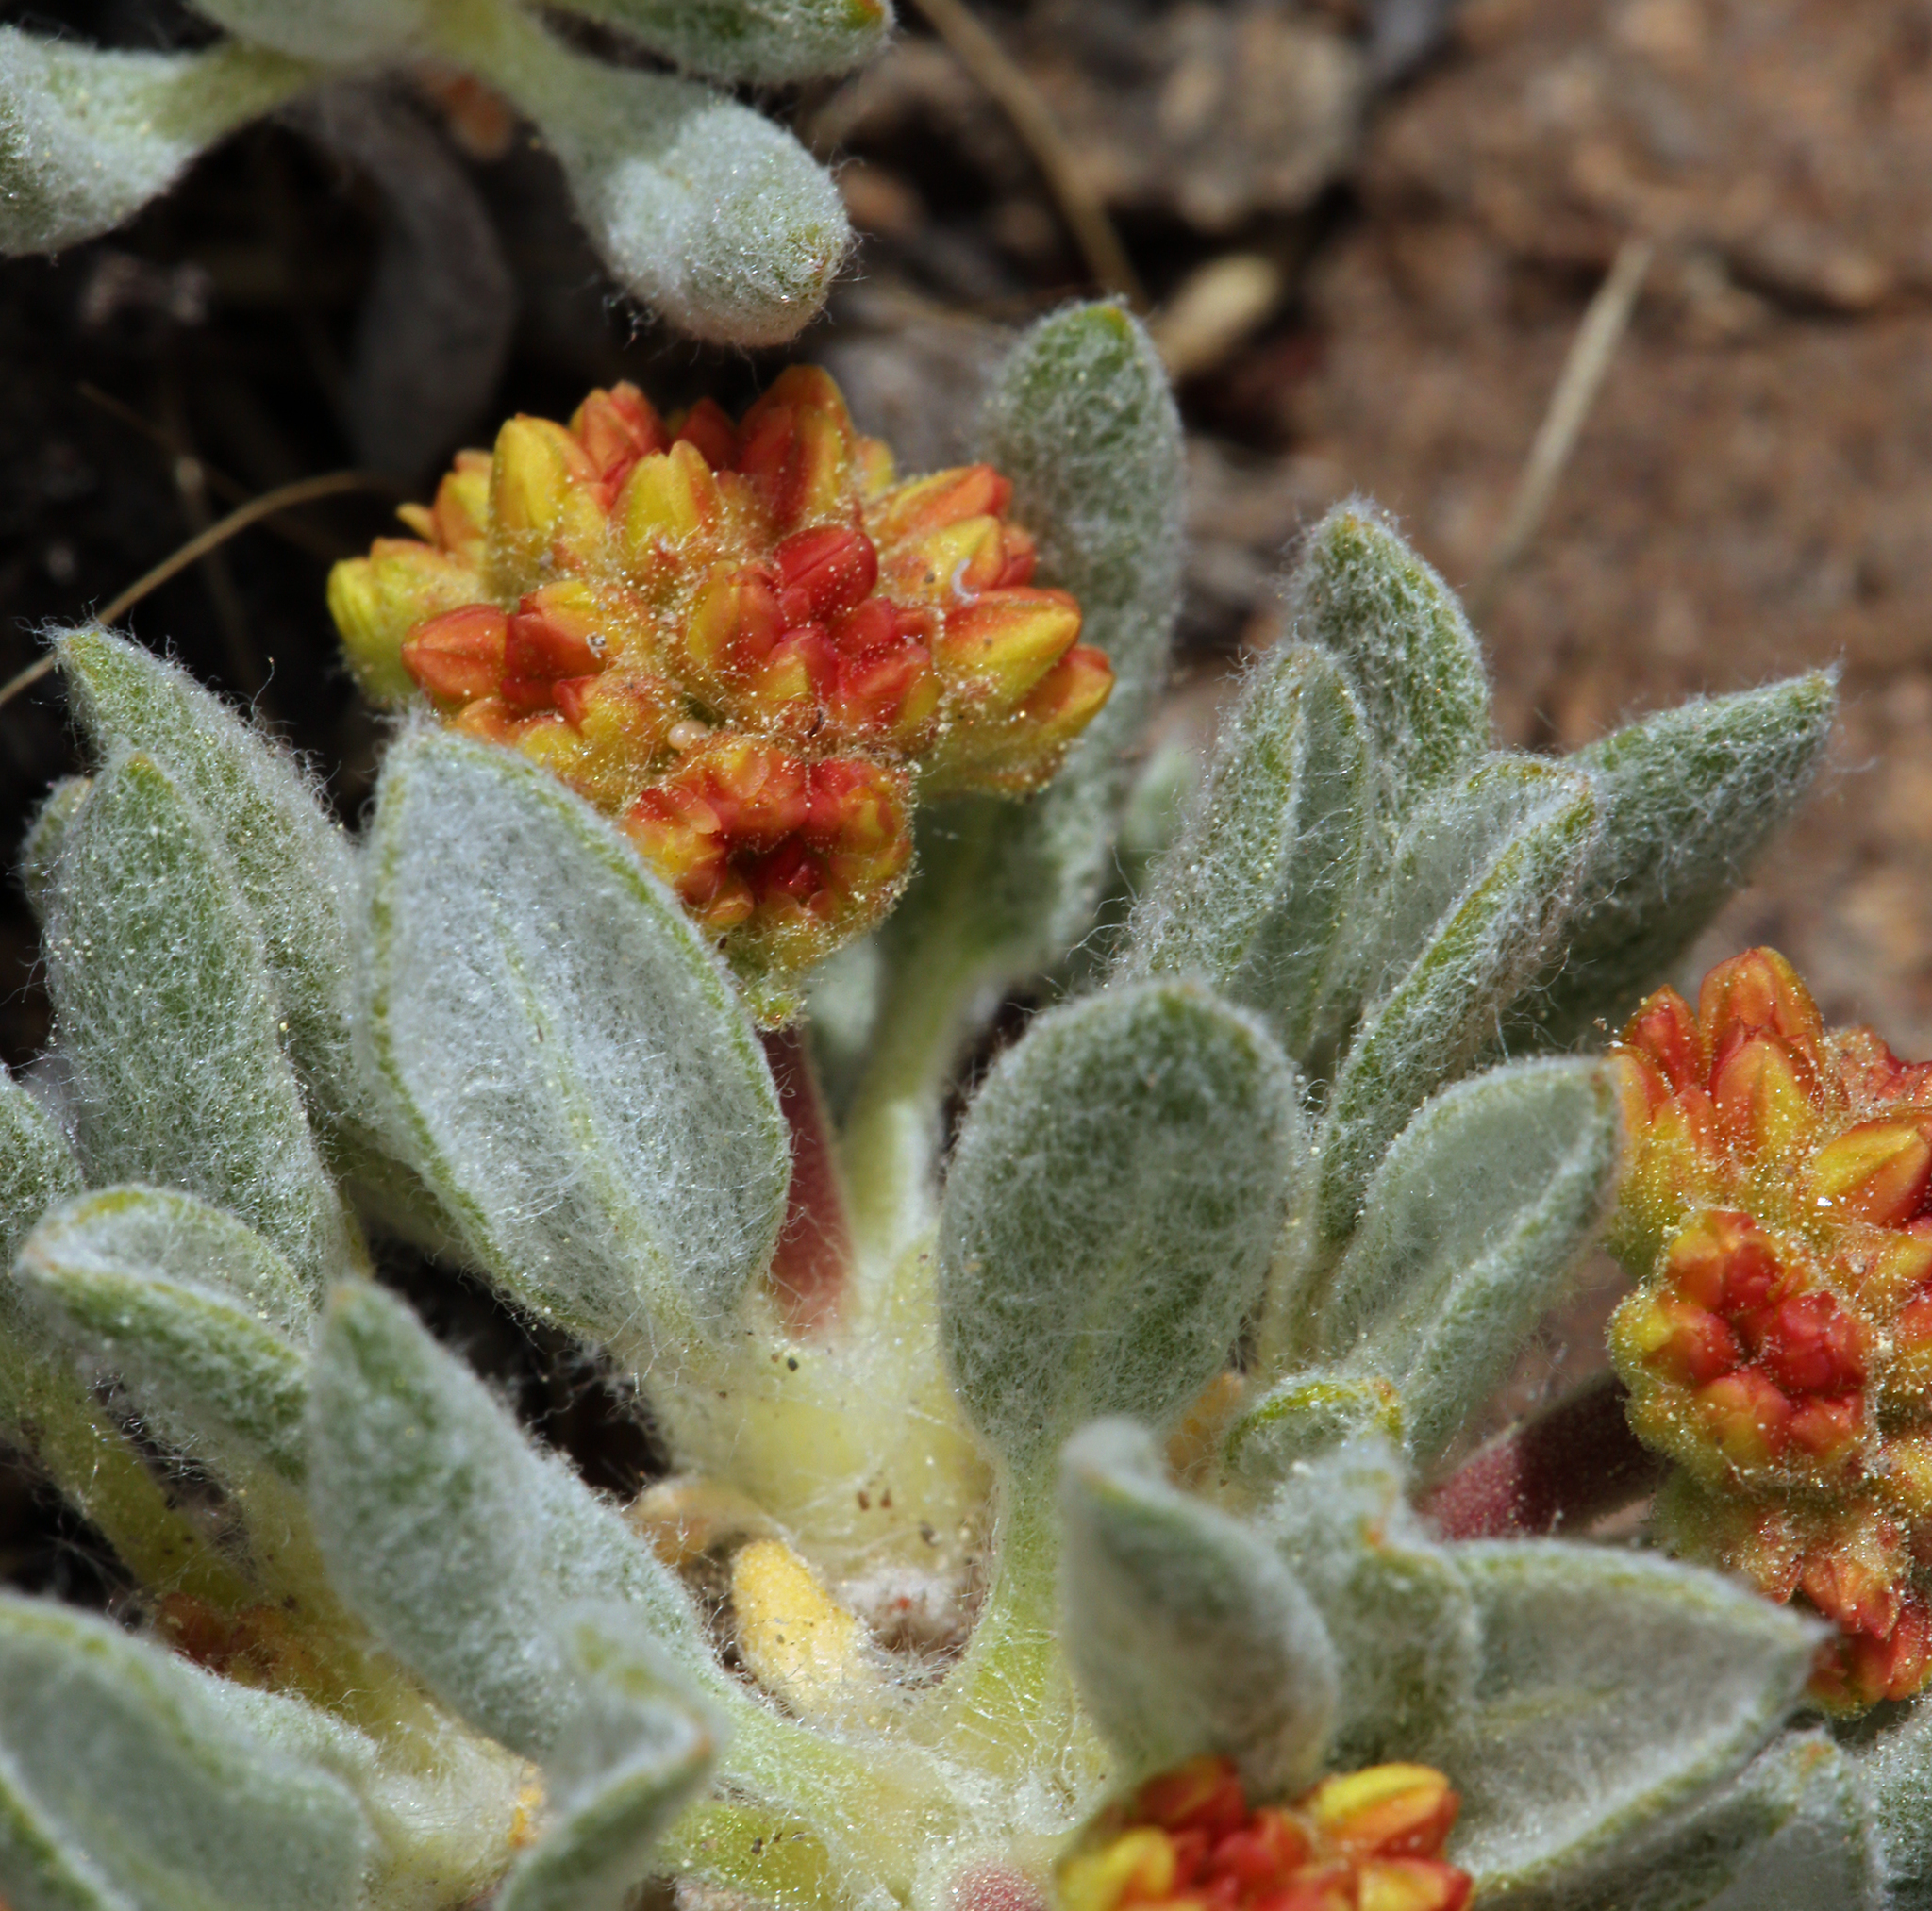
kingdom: Plantae
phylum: Tracheophyta
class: Magnoliopsida
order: Caryophyllales
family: Polygonaceae
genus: Eriogonum
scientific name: Eriogonum rosense
